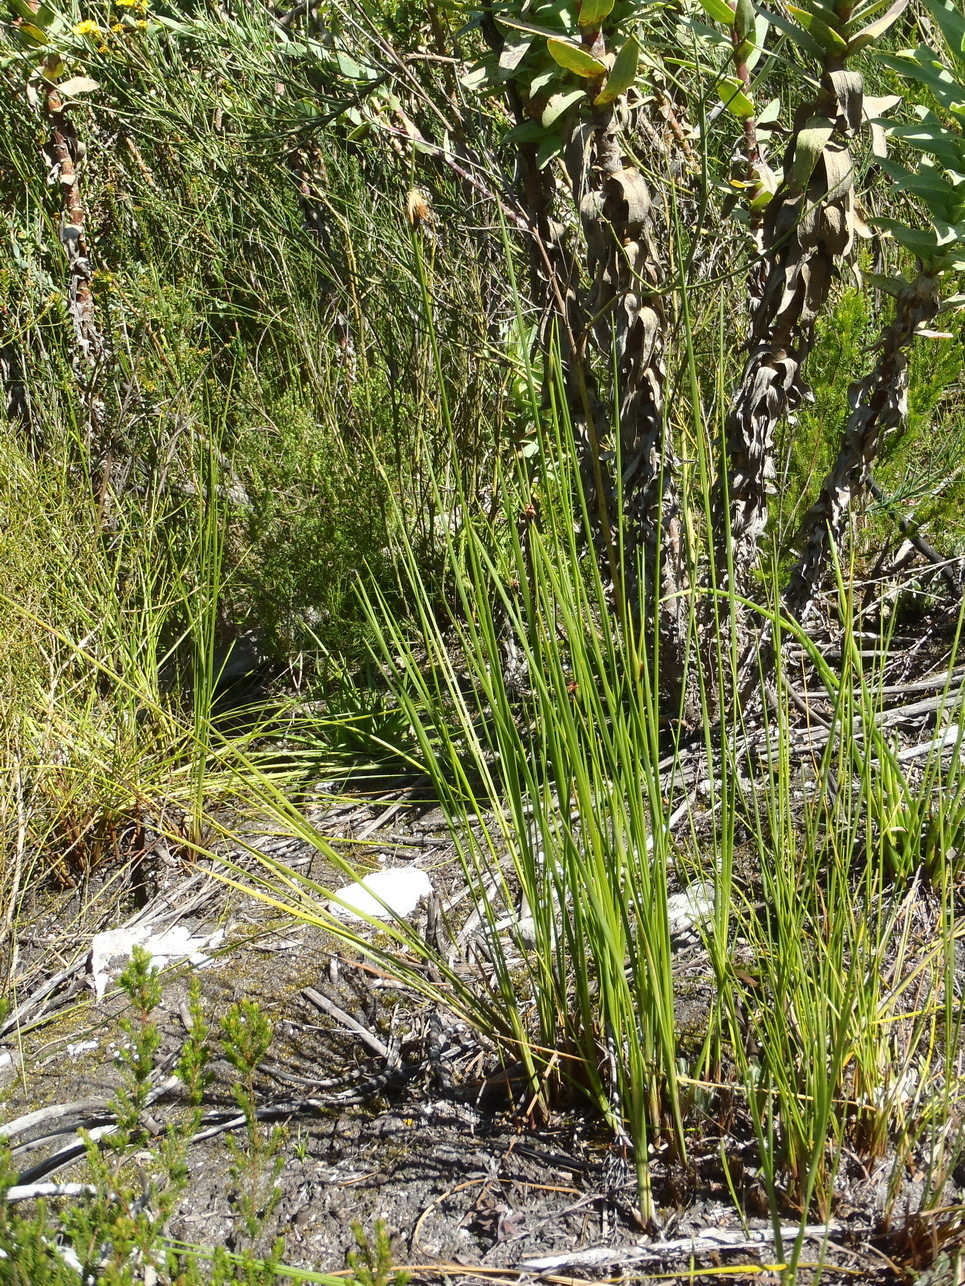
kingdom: Plantae
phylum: Tracheophyta
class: Liliopsida
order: Poales
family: Cyperaceae
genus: Chrysitrix
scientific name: Chrysitrix capensis
